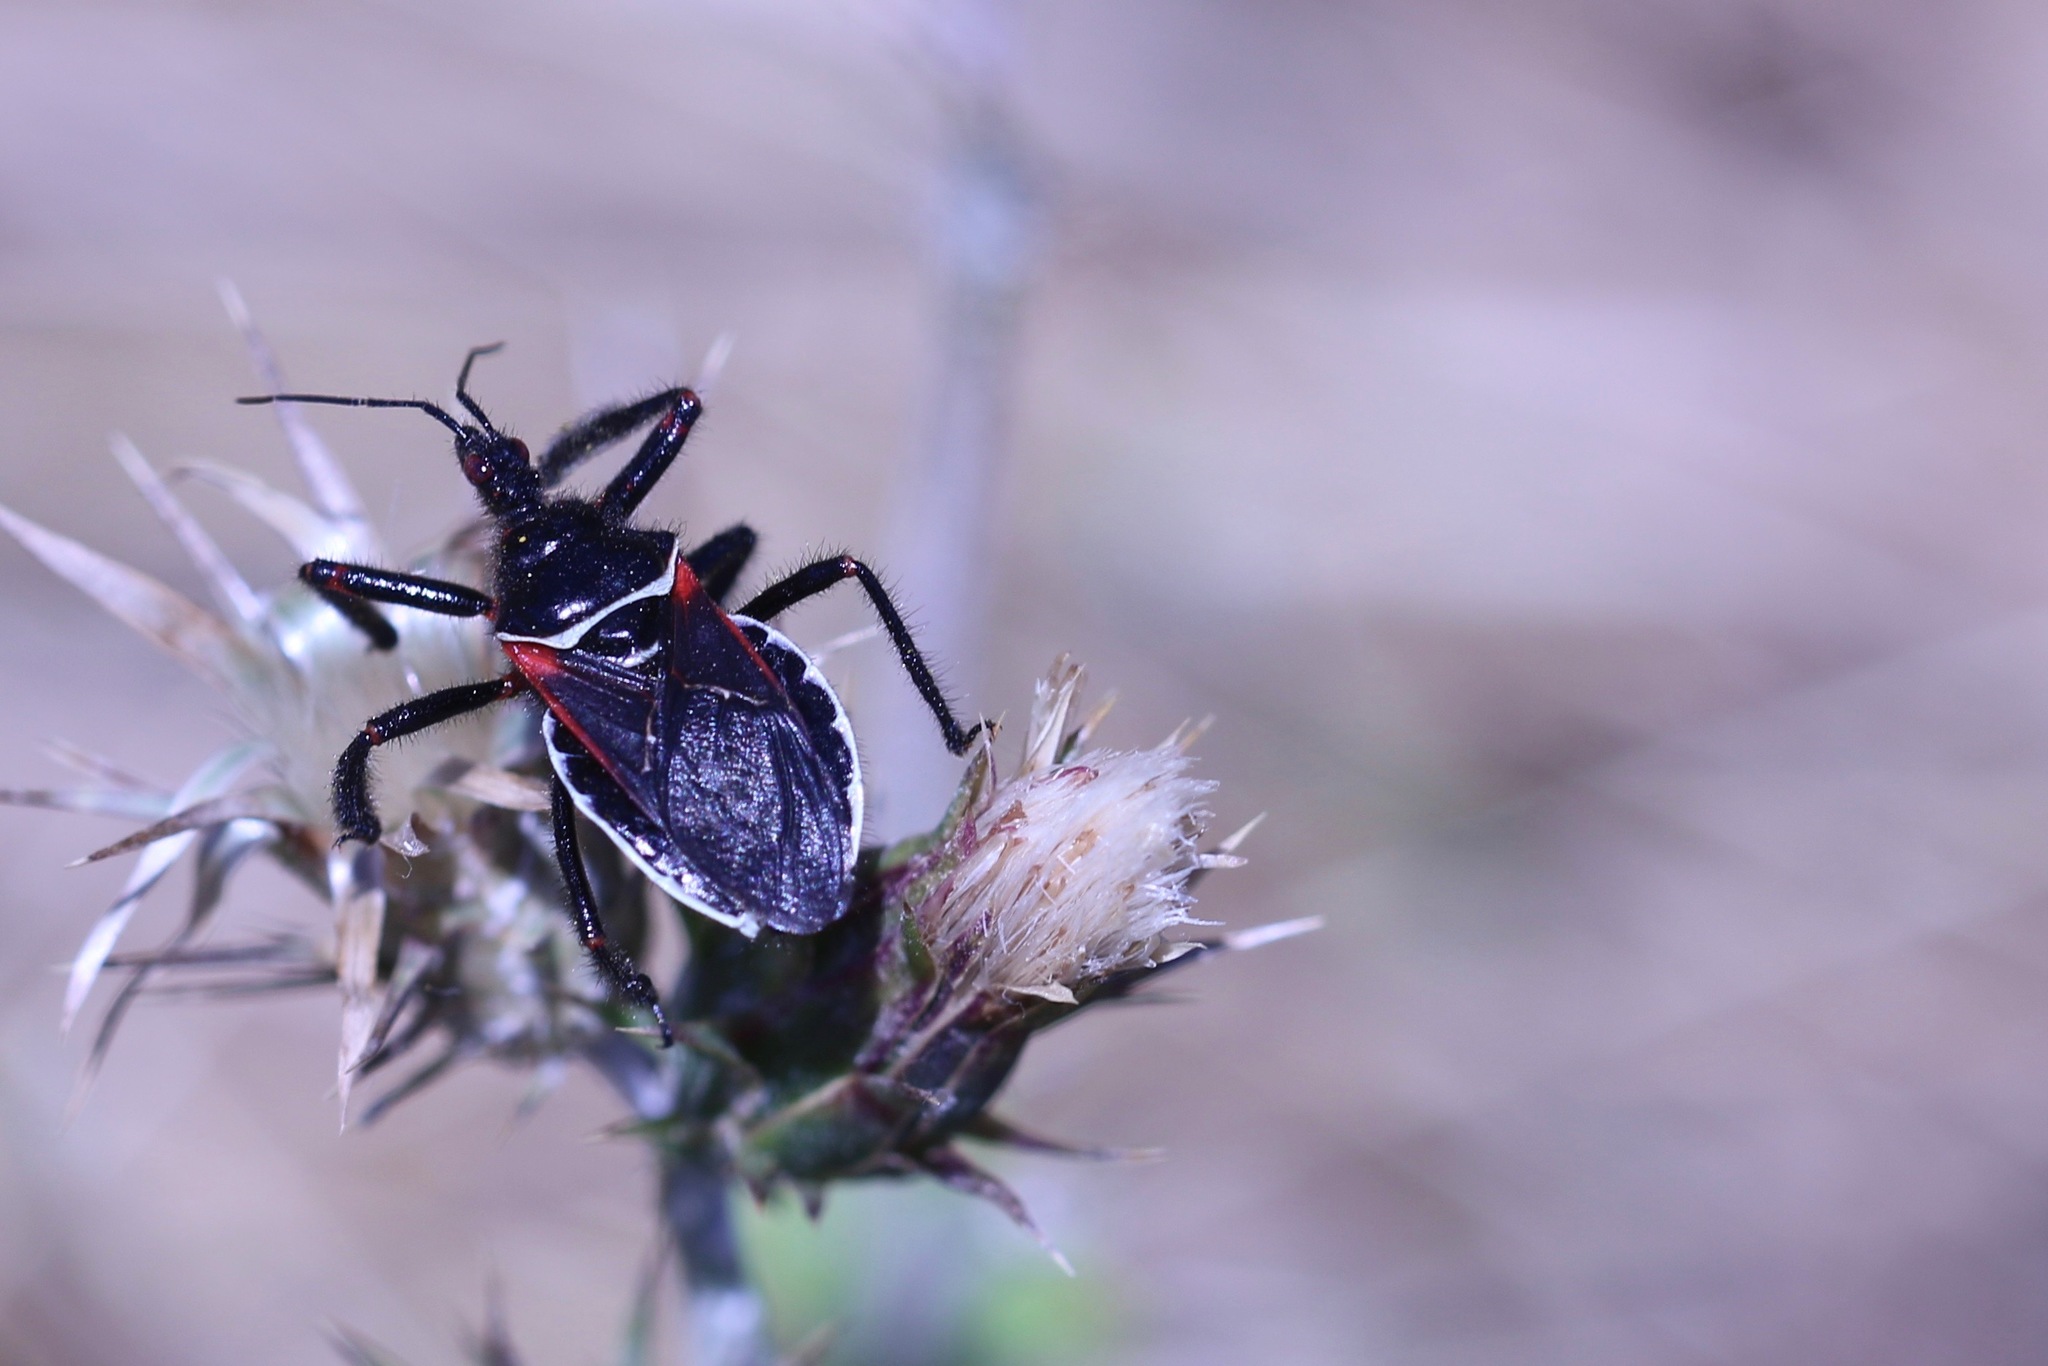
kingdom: Animalia
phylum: Arthropoda
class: Insecta
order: Hemiptera
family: Reduviidae
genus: Apiomerus
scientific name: Apiomerus californicus
